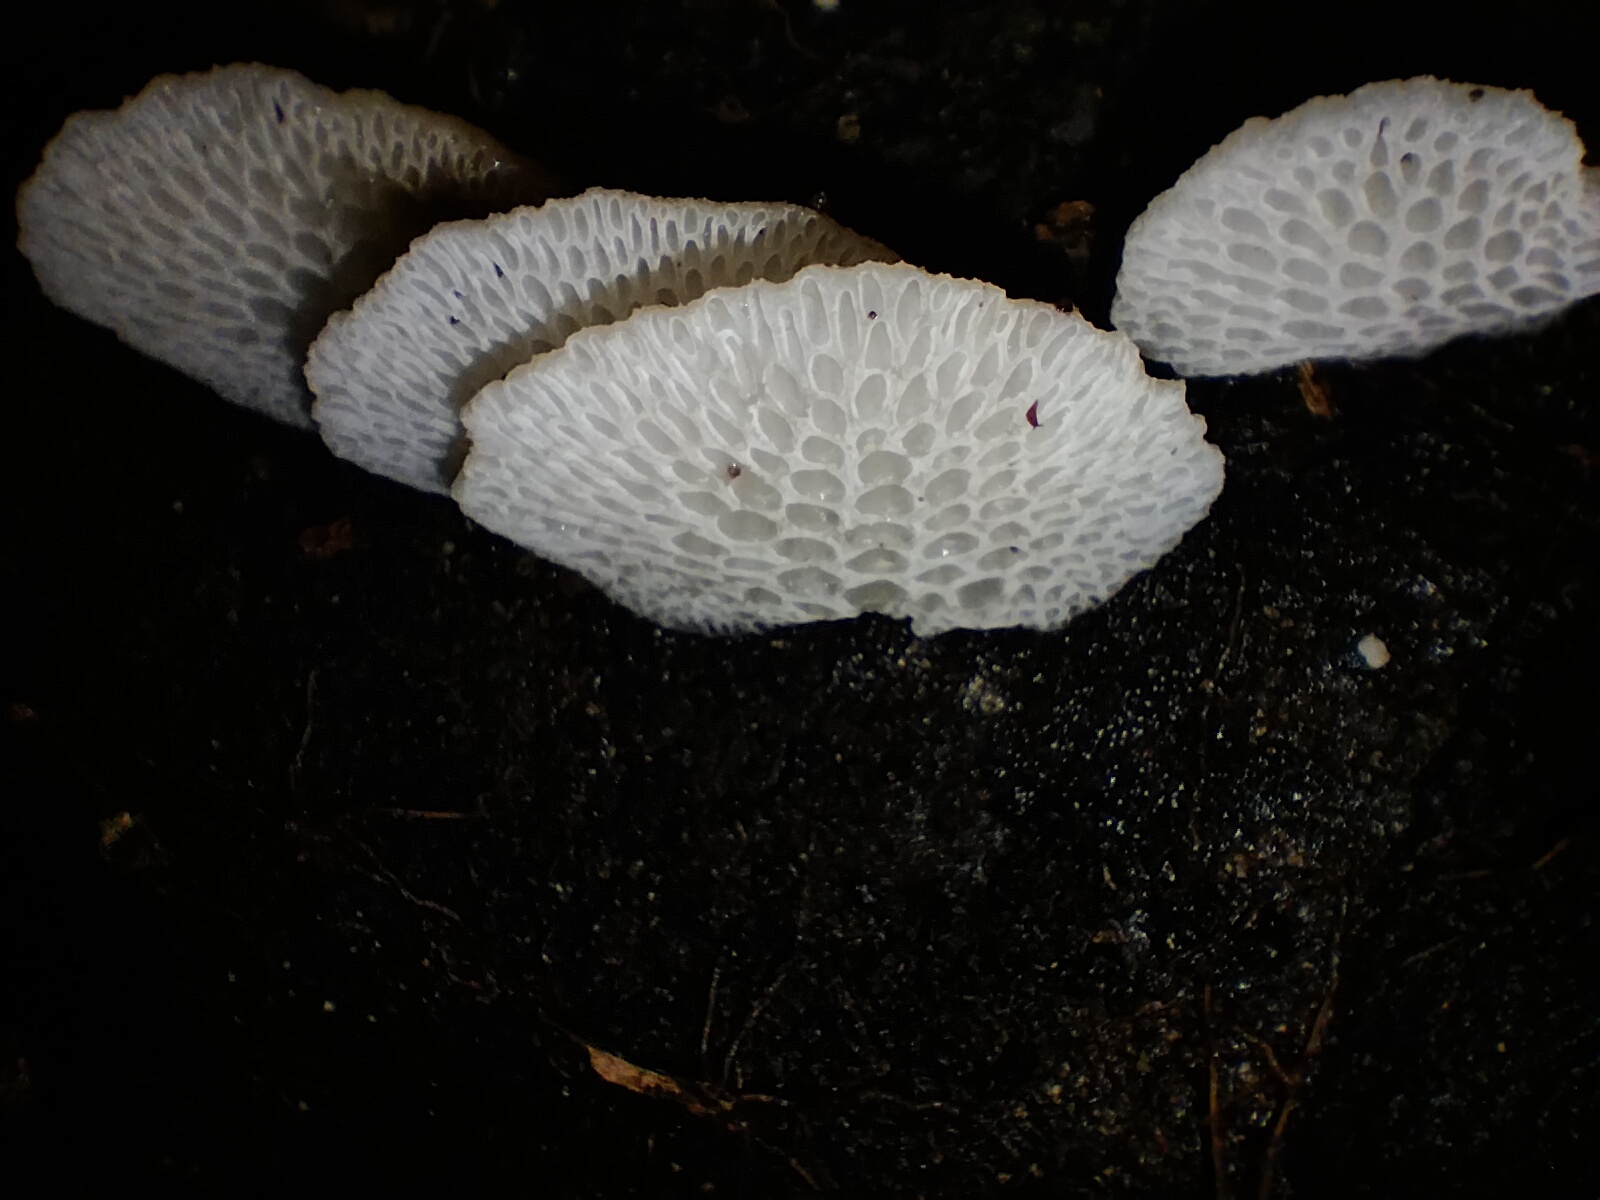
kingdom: Fungi
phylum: Basidiomycota
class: Agaricomycetes
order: Agaricales
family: Mycenaceae
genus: Favolaschia
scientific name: Favolaschia pustulosa
